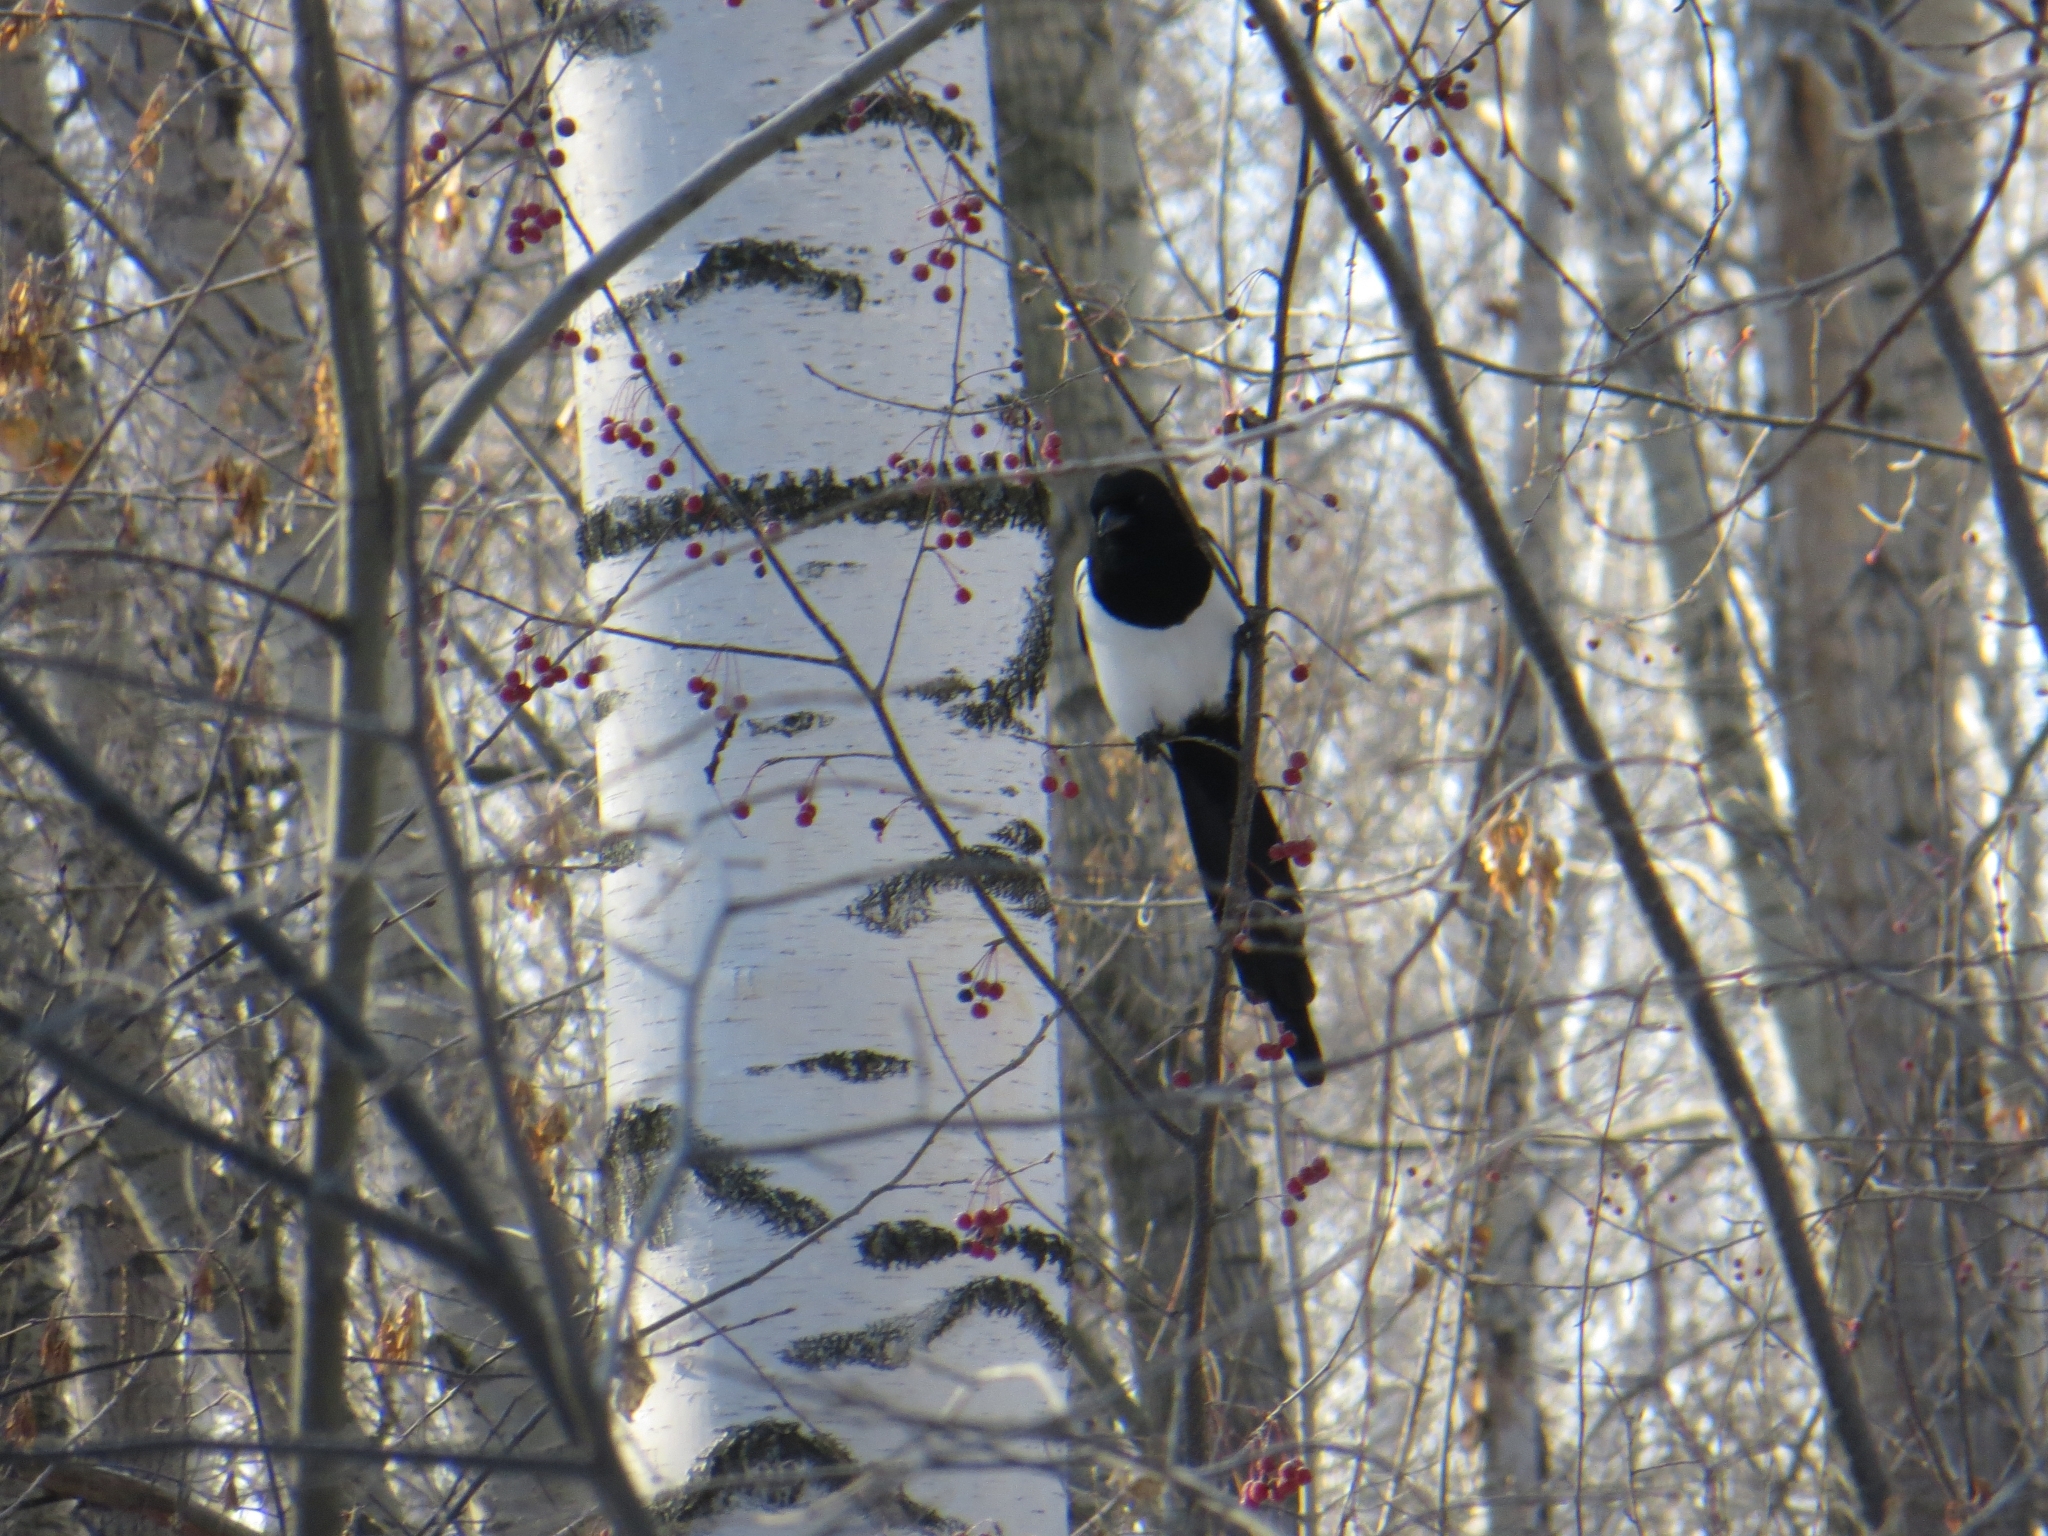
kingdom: Animalia
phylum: Chordata
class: Aves
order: Passeriformes
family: Corvidae
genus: Pica
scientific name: Pica pica
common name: Eurasian magpie
